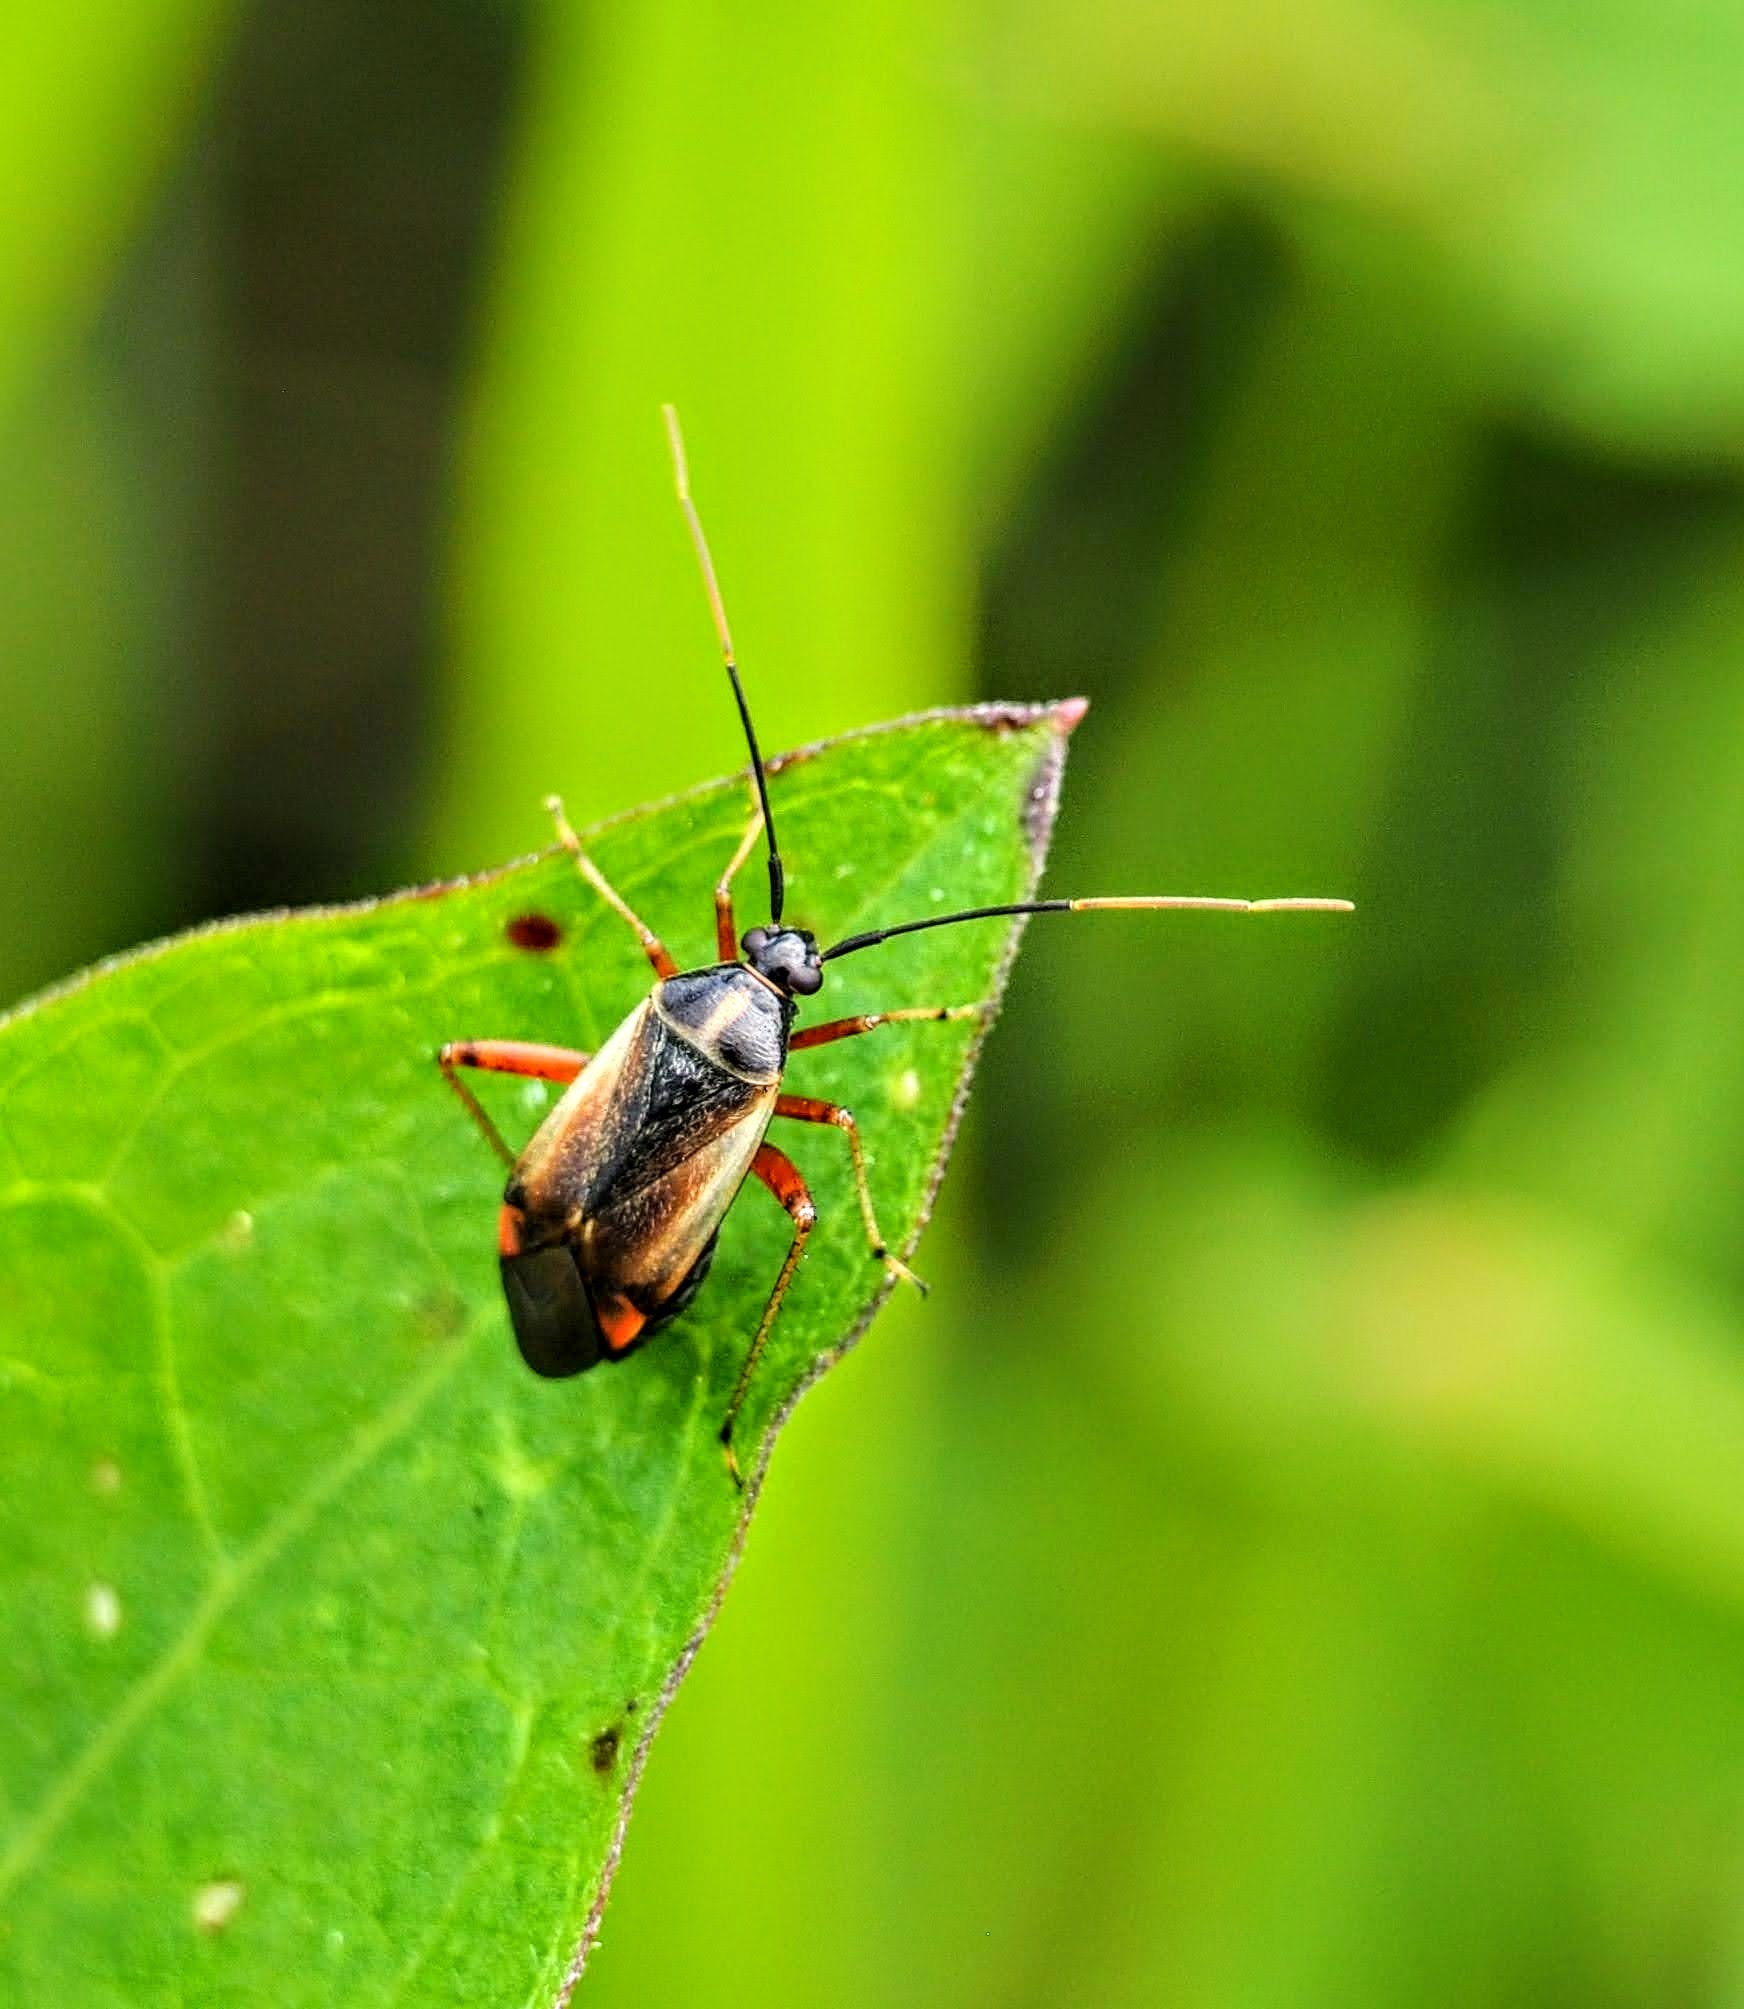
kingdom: Animalia
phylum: Arthropoda
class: Insecta
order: Hemiptera
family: Miridae
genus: Adelphocoris
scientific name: Adelphocoris seticornis
